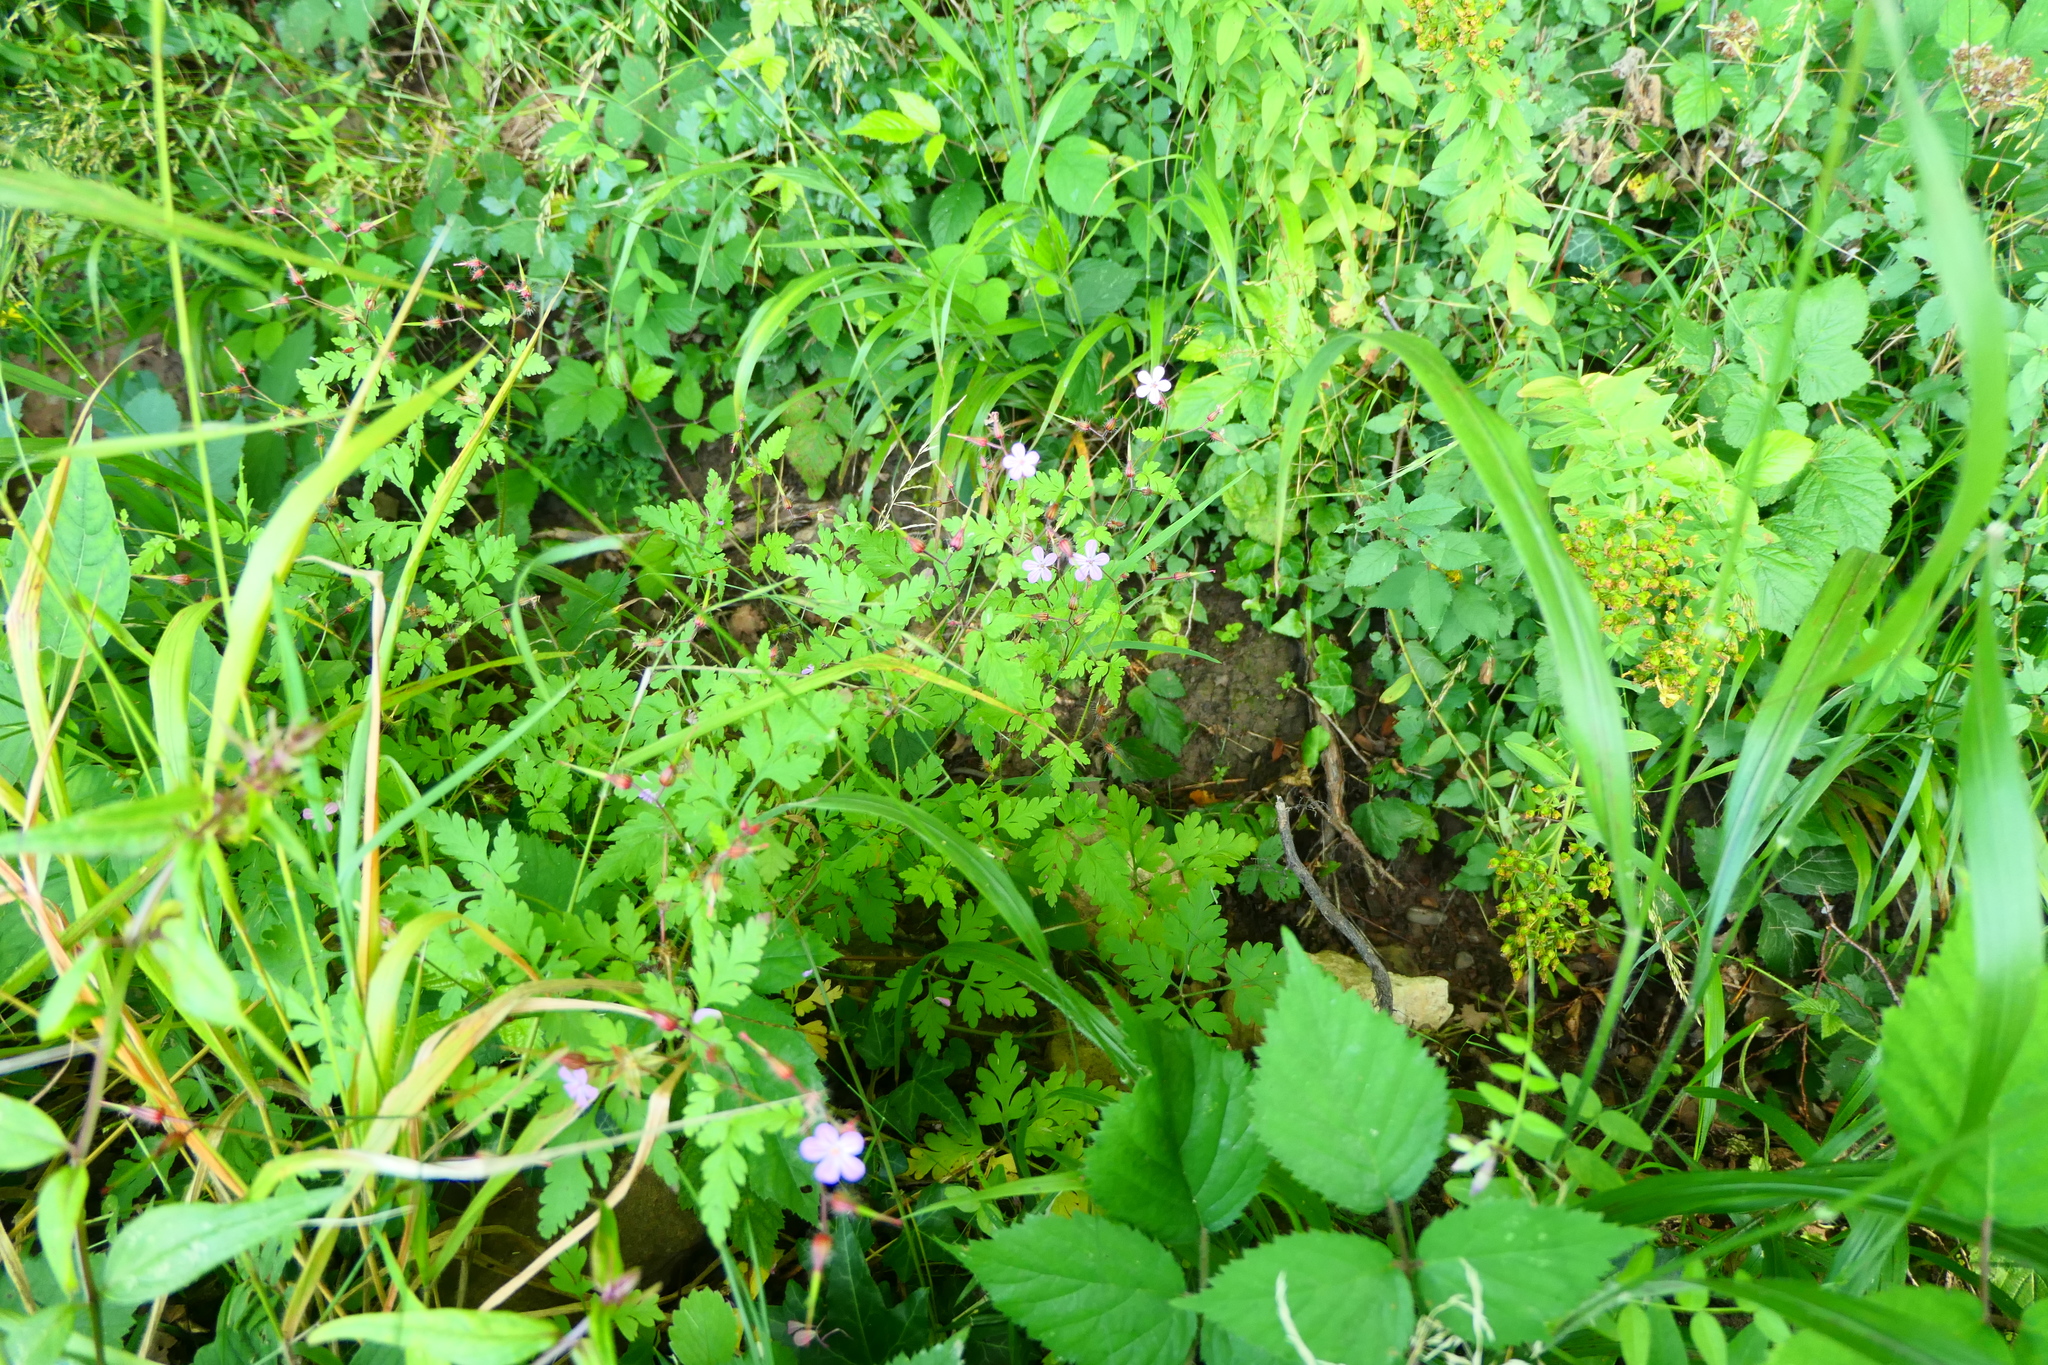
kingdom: Plantae
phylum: Tracheophyta
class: Magnoliopsida
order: Geraniales
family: Geraniaceae
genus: Geranium
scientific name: Geranium robertianum
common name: Herb-robert
